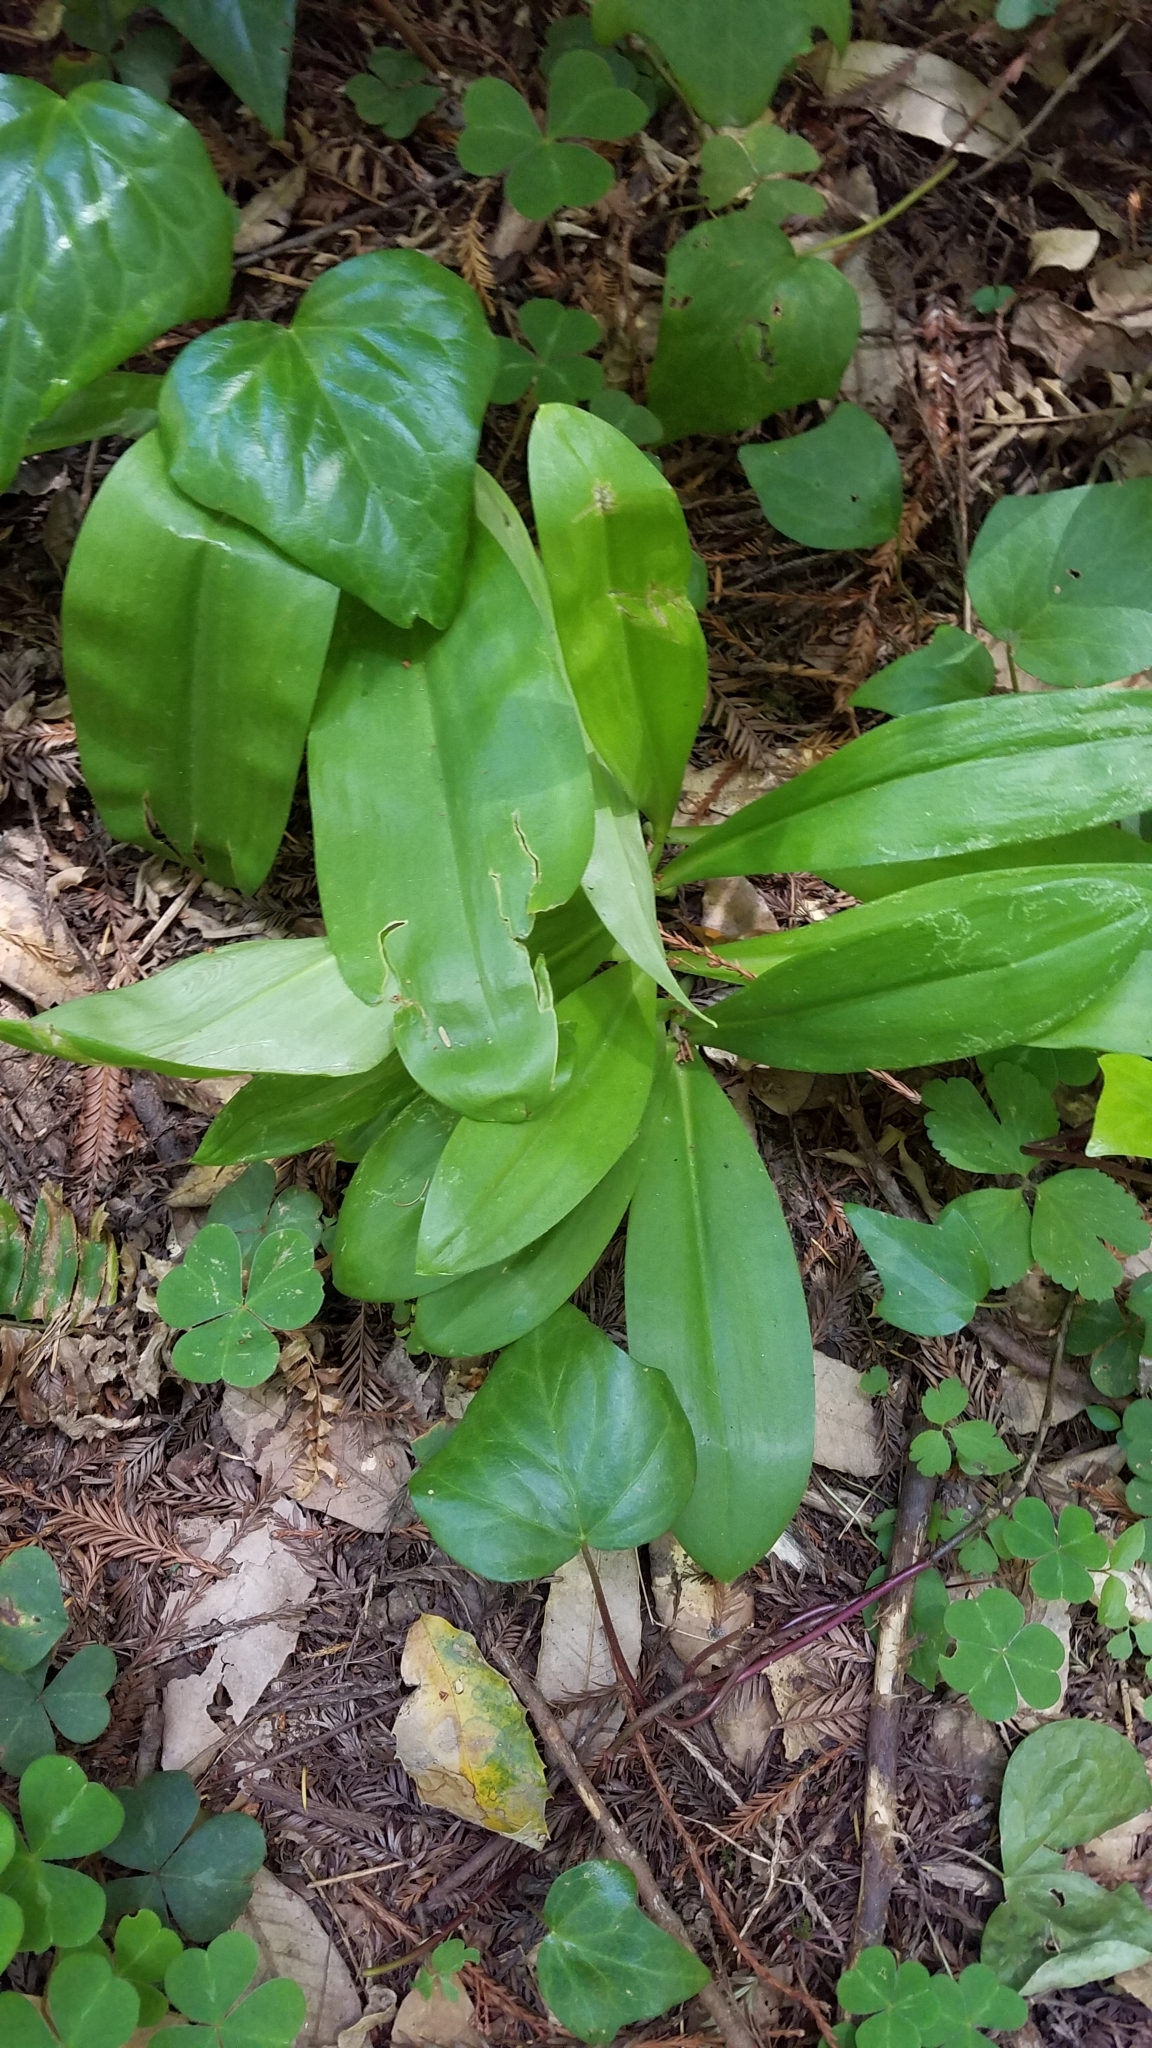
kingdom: Plantae
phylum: Tracheophyta
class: Liliopsida
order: Liliales
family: Liliaceae
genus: Clintonia
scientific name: Clintonia andrewsiana
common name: Red clintonia
